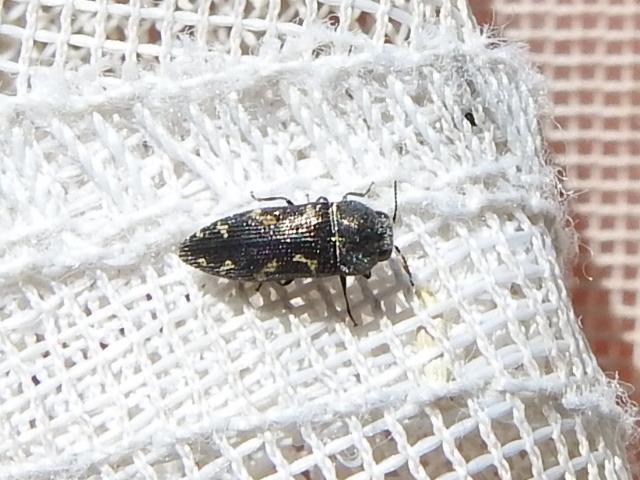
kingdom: Animalia
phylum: Arthropoda
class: Insecta
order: Coleoptera
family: Buprestidae
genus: Acmaeodera
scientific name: Acmaeodera neglecta
